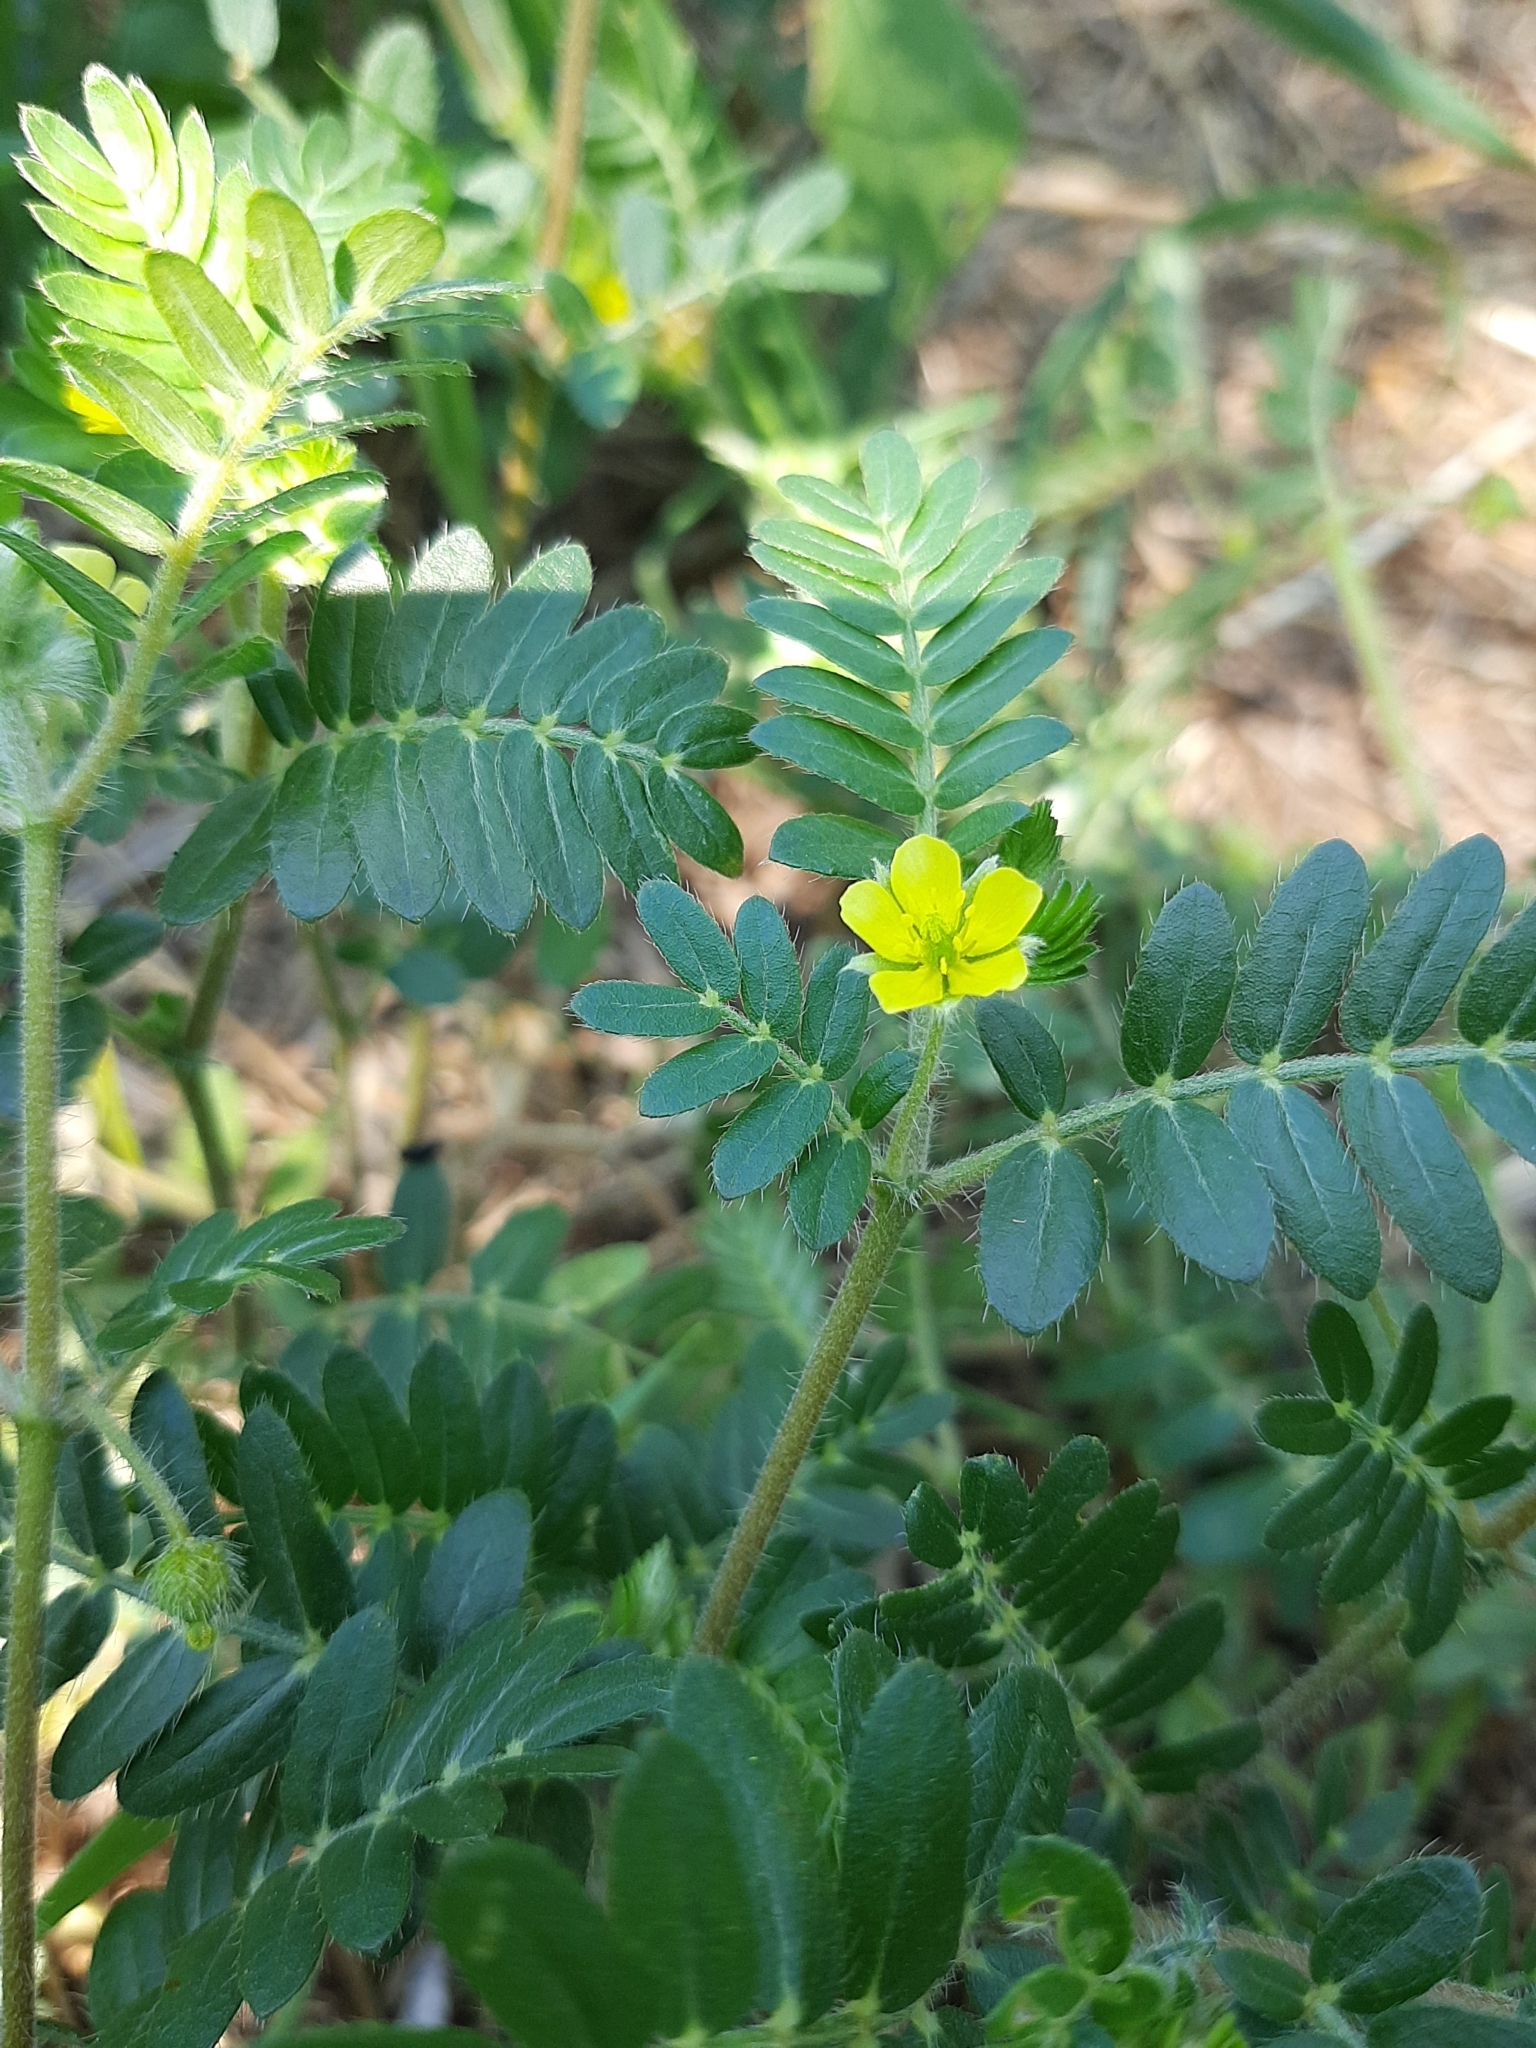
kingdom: Plantae
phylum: Tracheophyta
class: Magnoliopsida
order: Zygophyllales
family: Zygophyllaceae
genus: Tribulus
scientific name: Tribulus terrestris
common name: Puncturevine
